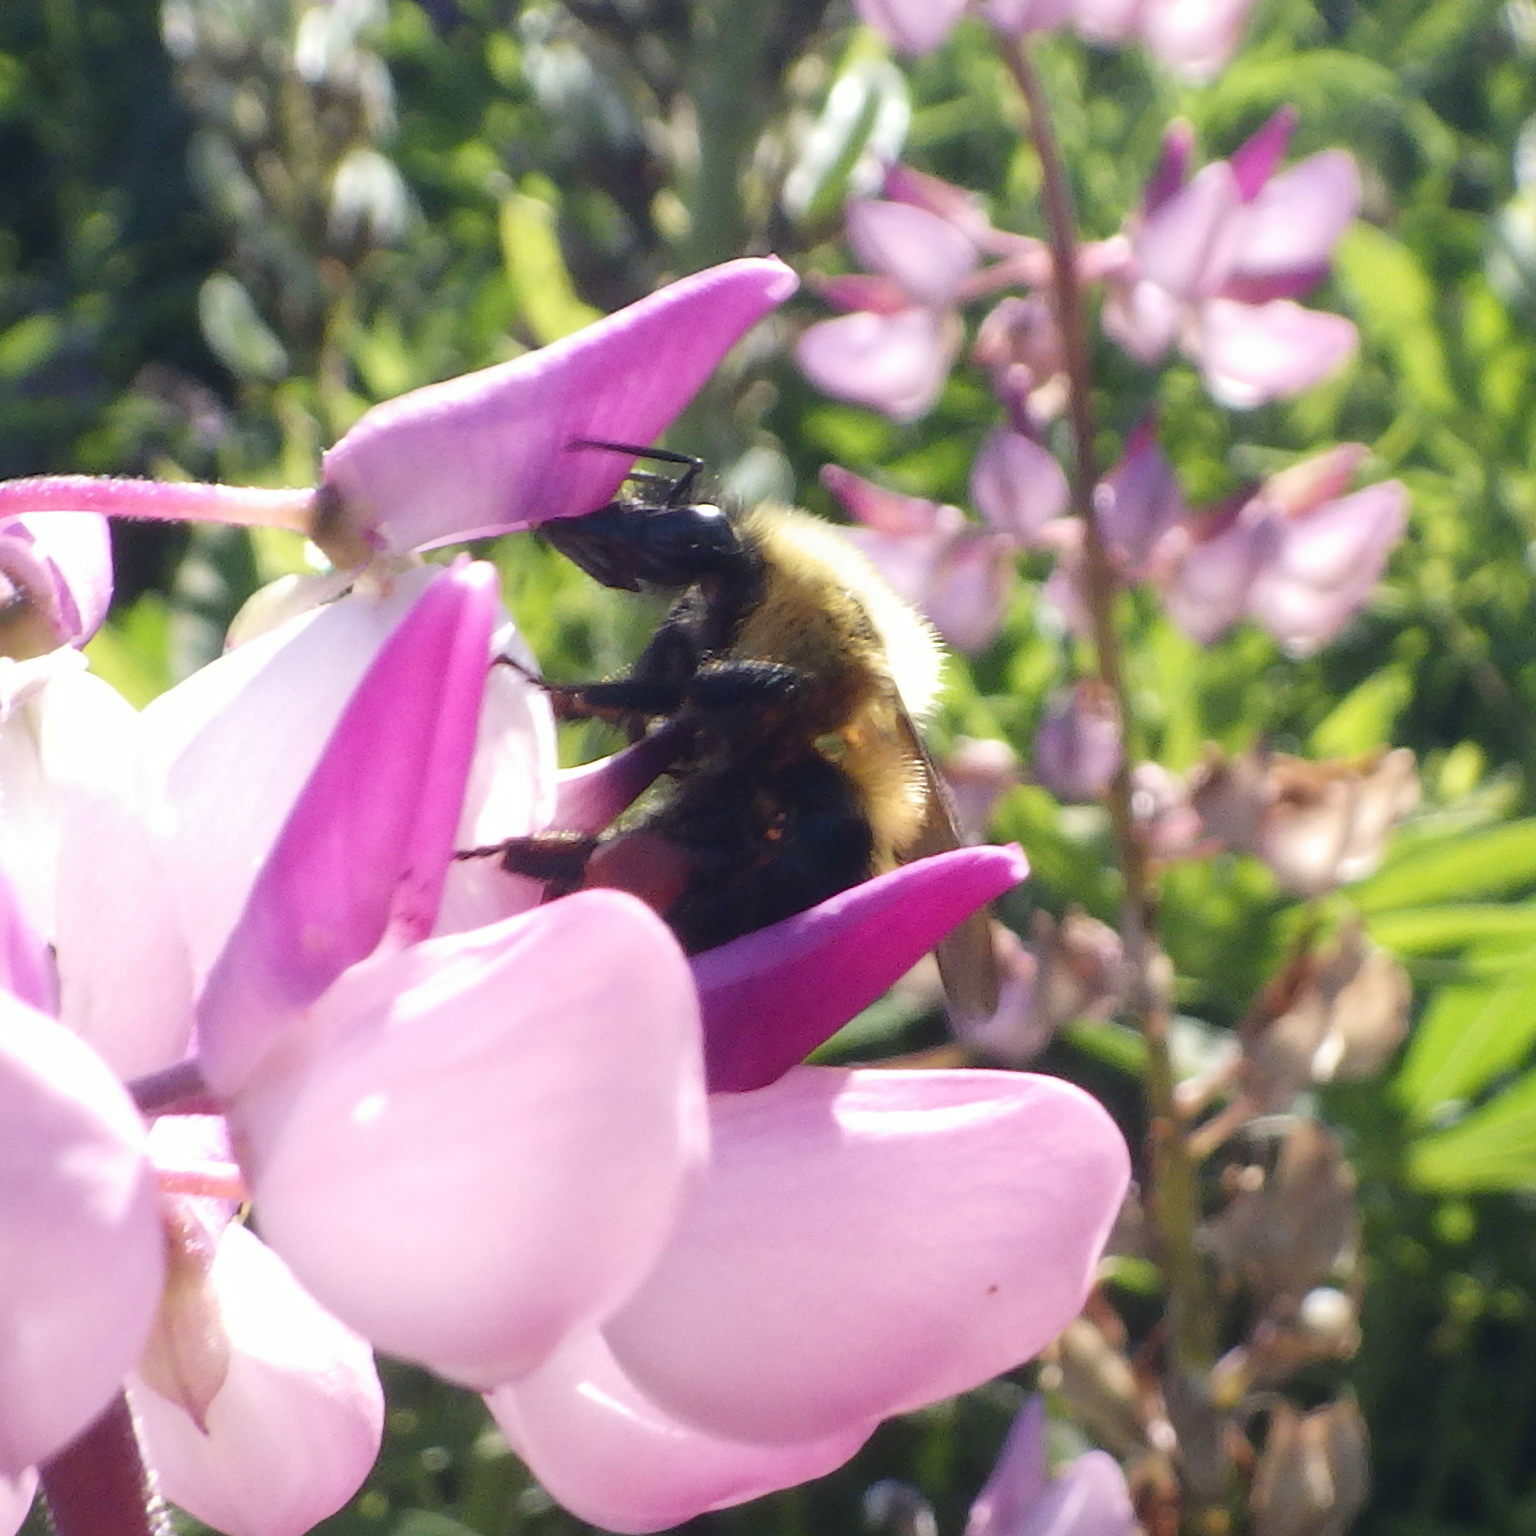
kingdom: Animalia
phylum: Arthropoda
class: Insecta
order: Hymenoptera
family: Apidae
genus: Bombus
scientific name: Bombus bimaculatus
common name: Two-spotted bumble bee
